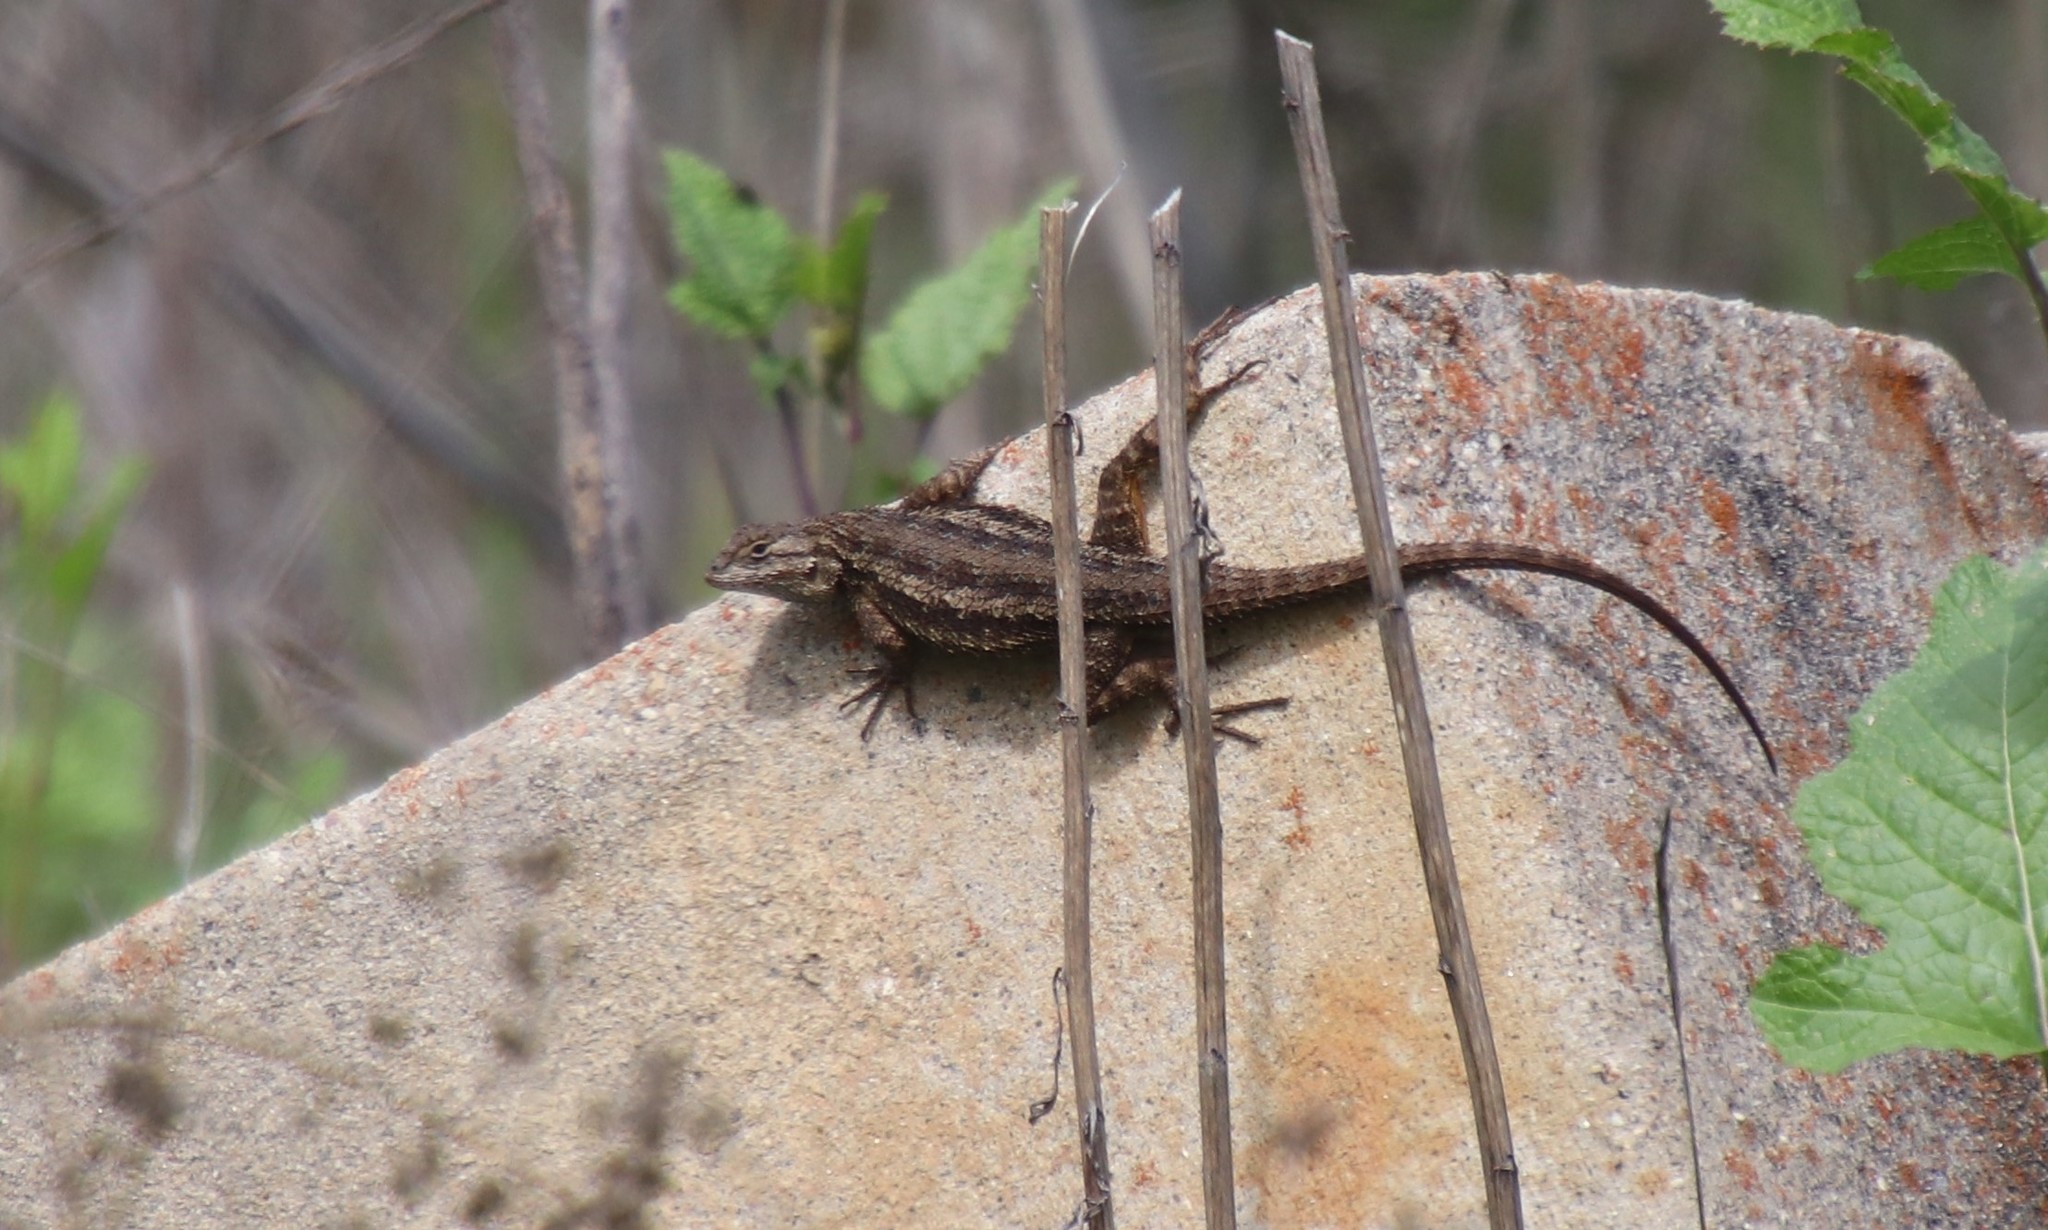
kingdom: Animalia
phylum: Chordata
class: Squamata
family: Phrynosomatidae
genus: Sceloporus
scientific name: Sceloporus occidentalis
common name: Western fence lizard
